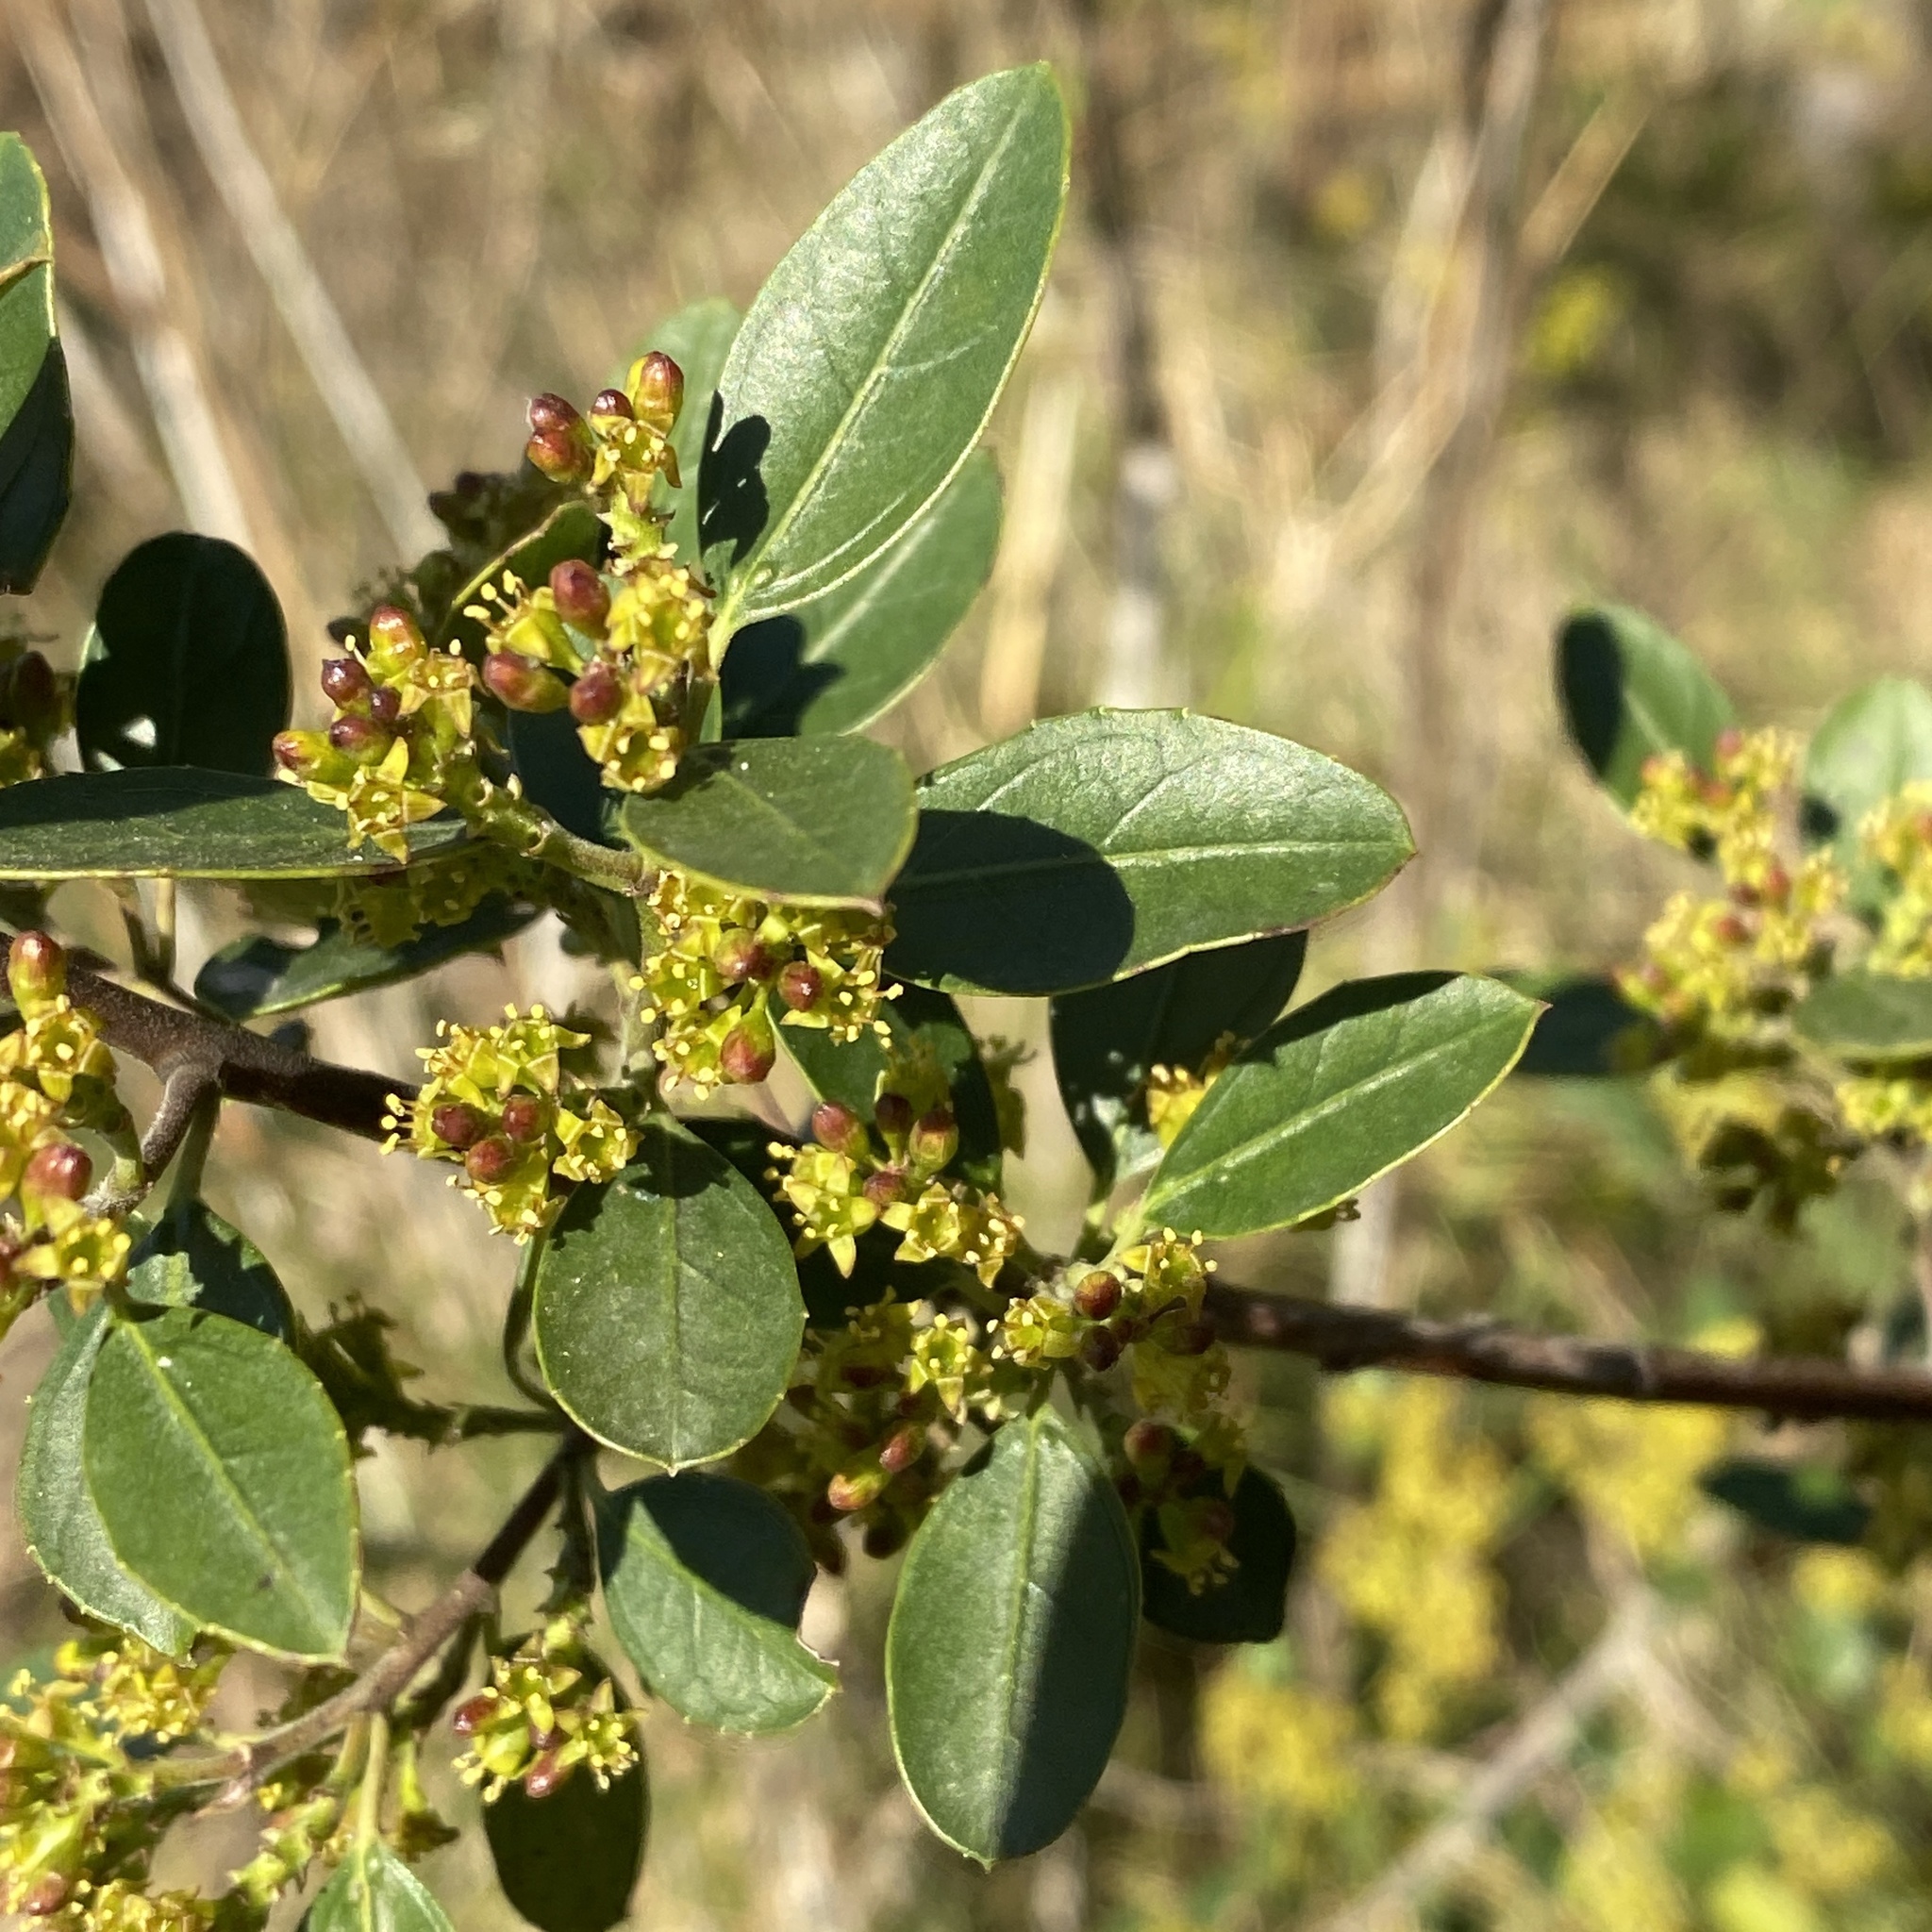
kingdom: Plantae
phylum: Tracheophyta
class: Magnoliopsida
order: Rosales
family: Rhamnaceae
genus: Rhamnus
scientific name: Rhamnus alaternus
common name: Mediterranean buckthorn
